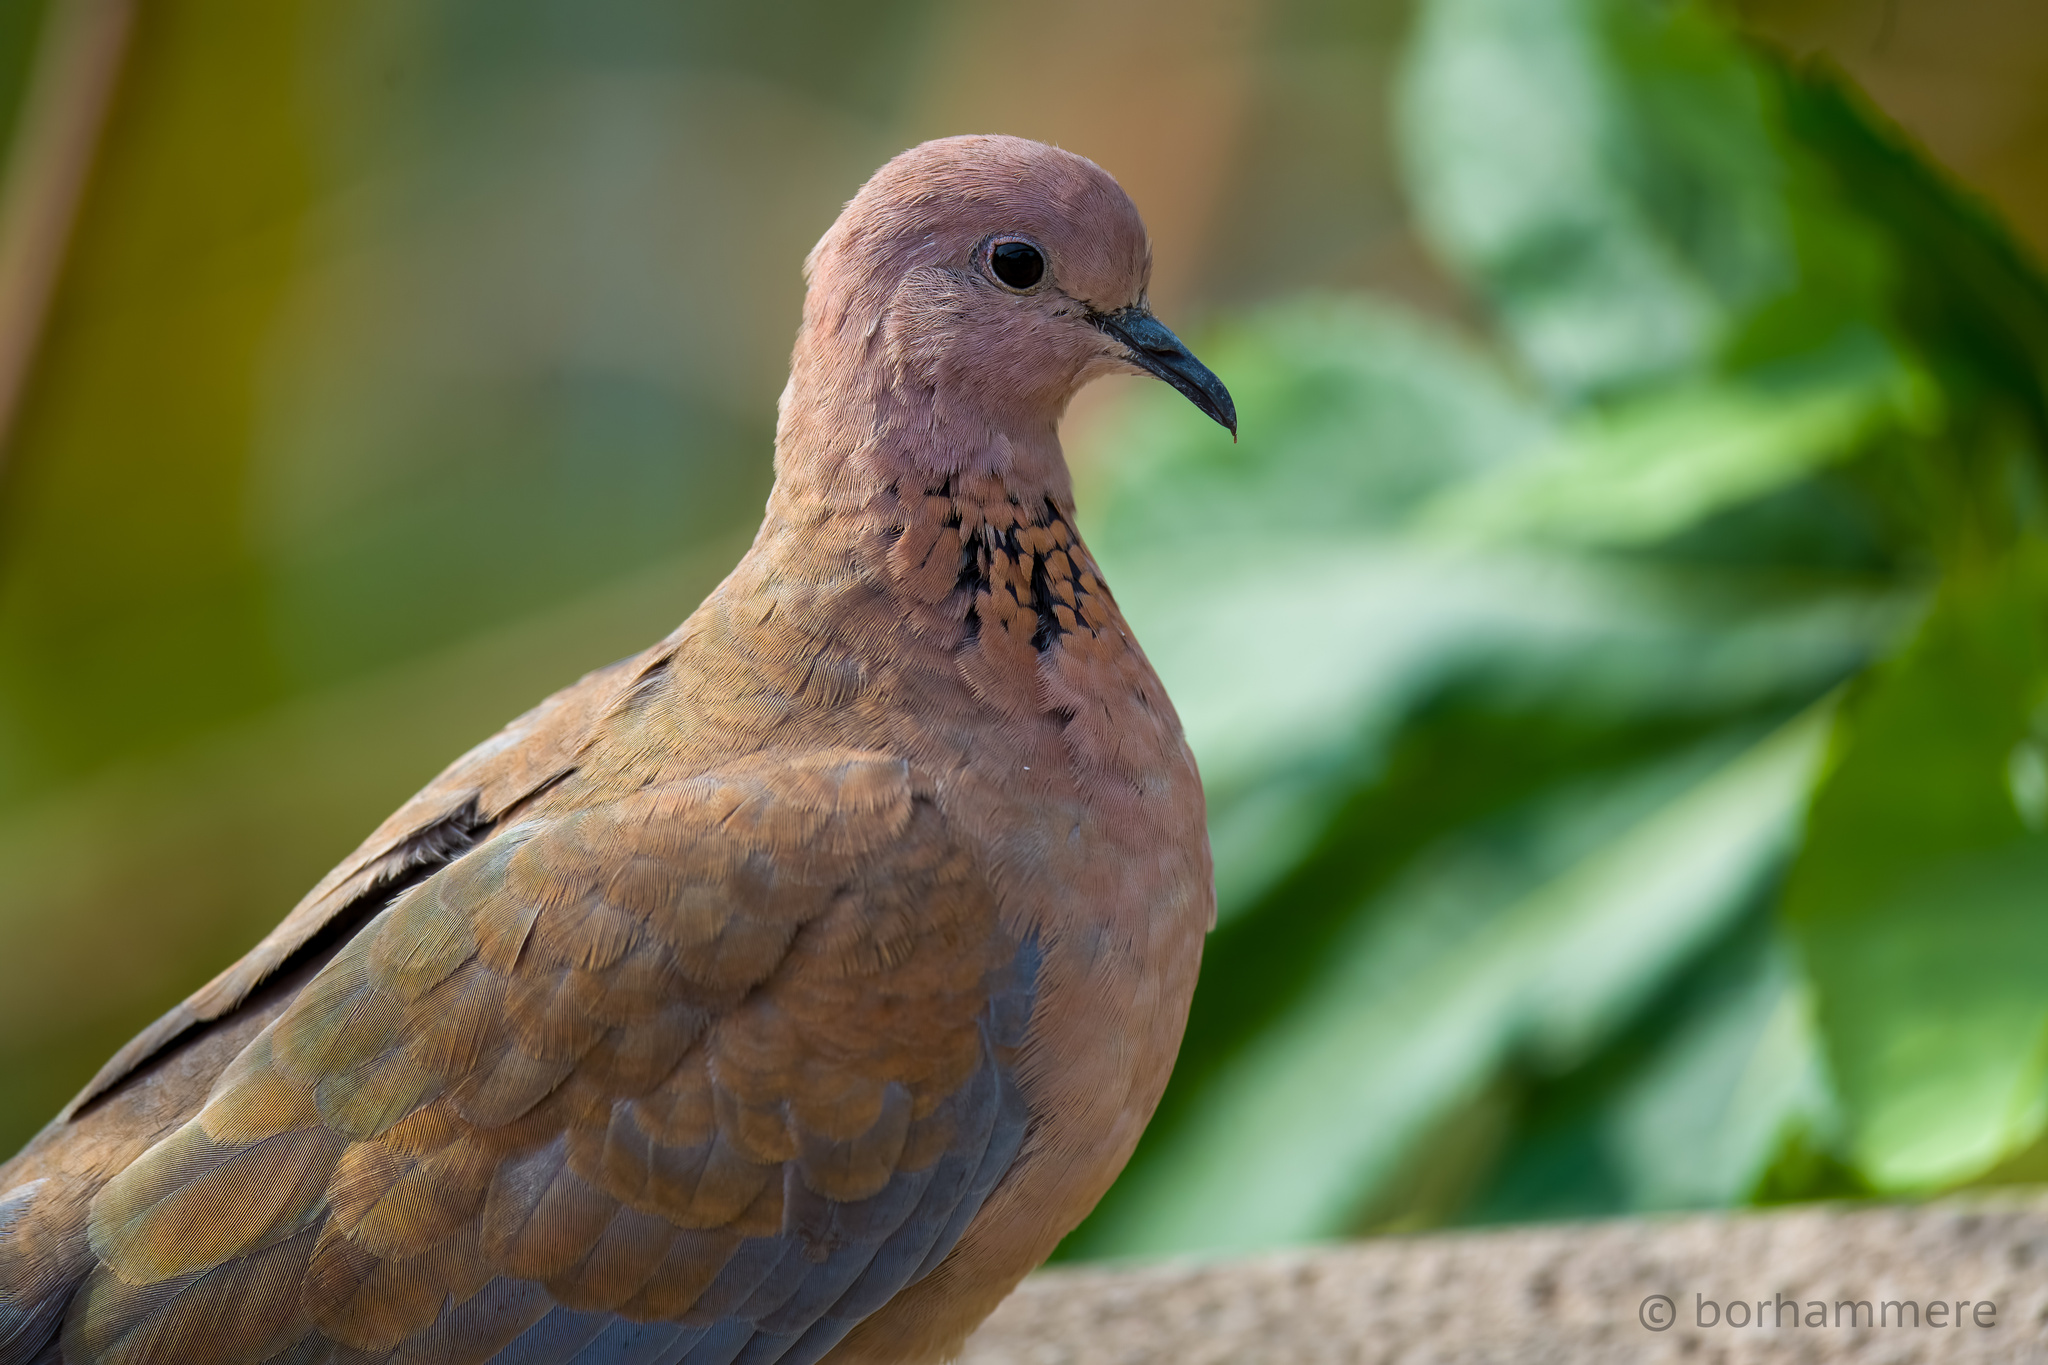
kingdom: Animalia
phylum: Chordata
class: Aves
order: Columbiformes
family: Columbidae
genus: Spilopelia
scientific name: Spilopelia senegalensis
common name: Laughing dove
